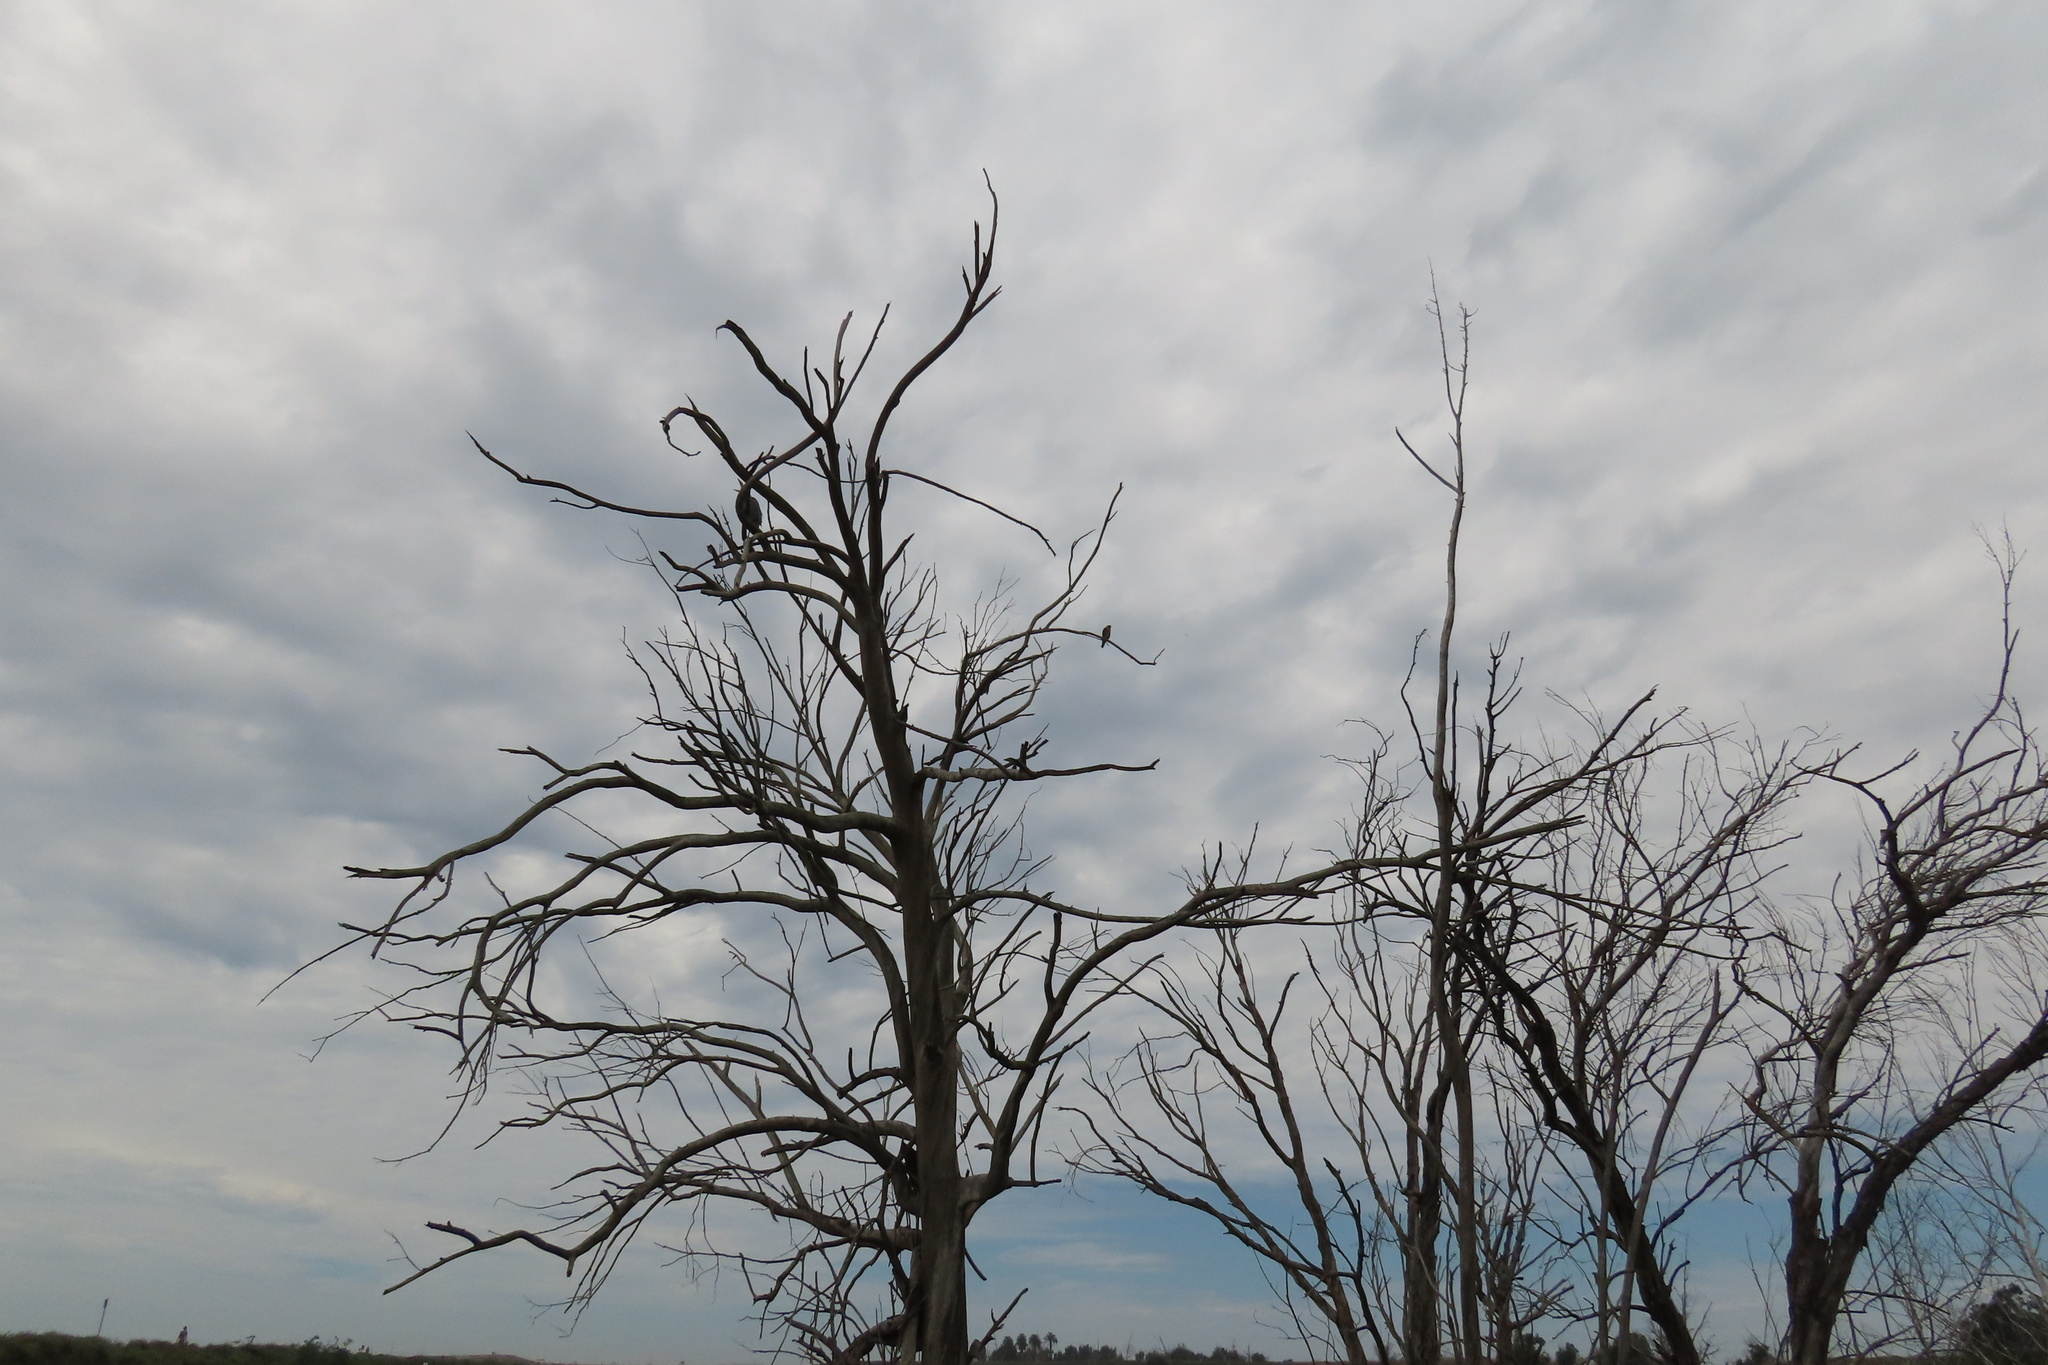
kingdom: Animalia
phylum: Chordata
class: Aves
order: Pelecaniformes
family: Ardeidae
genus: Ardea
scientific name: Ardea herodias
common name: Great blue heron
